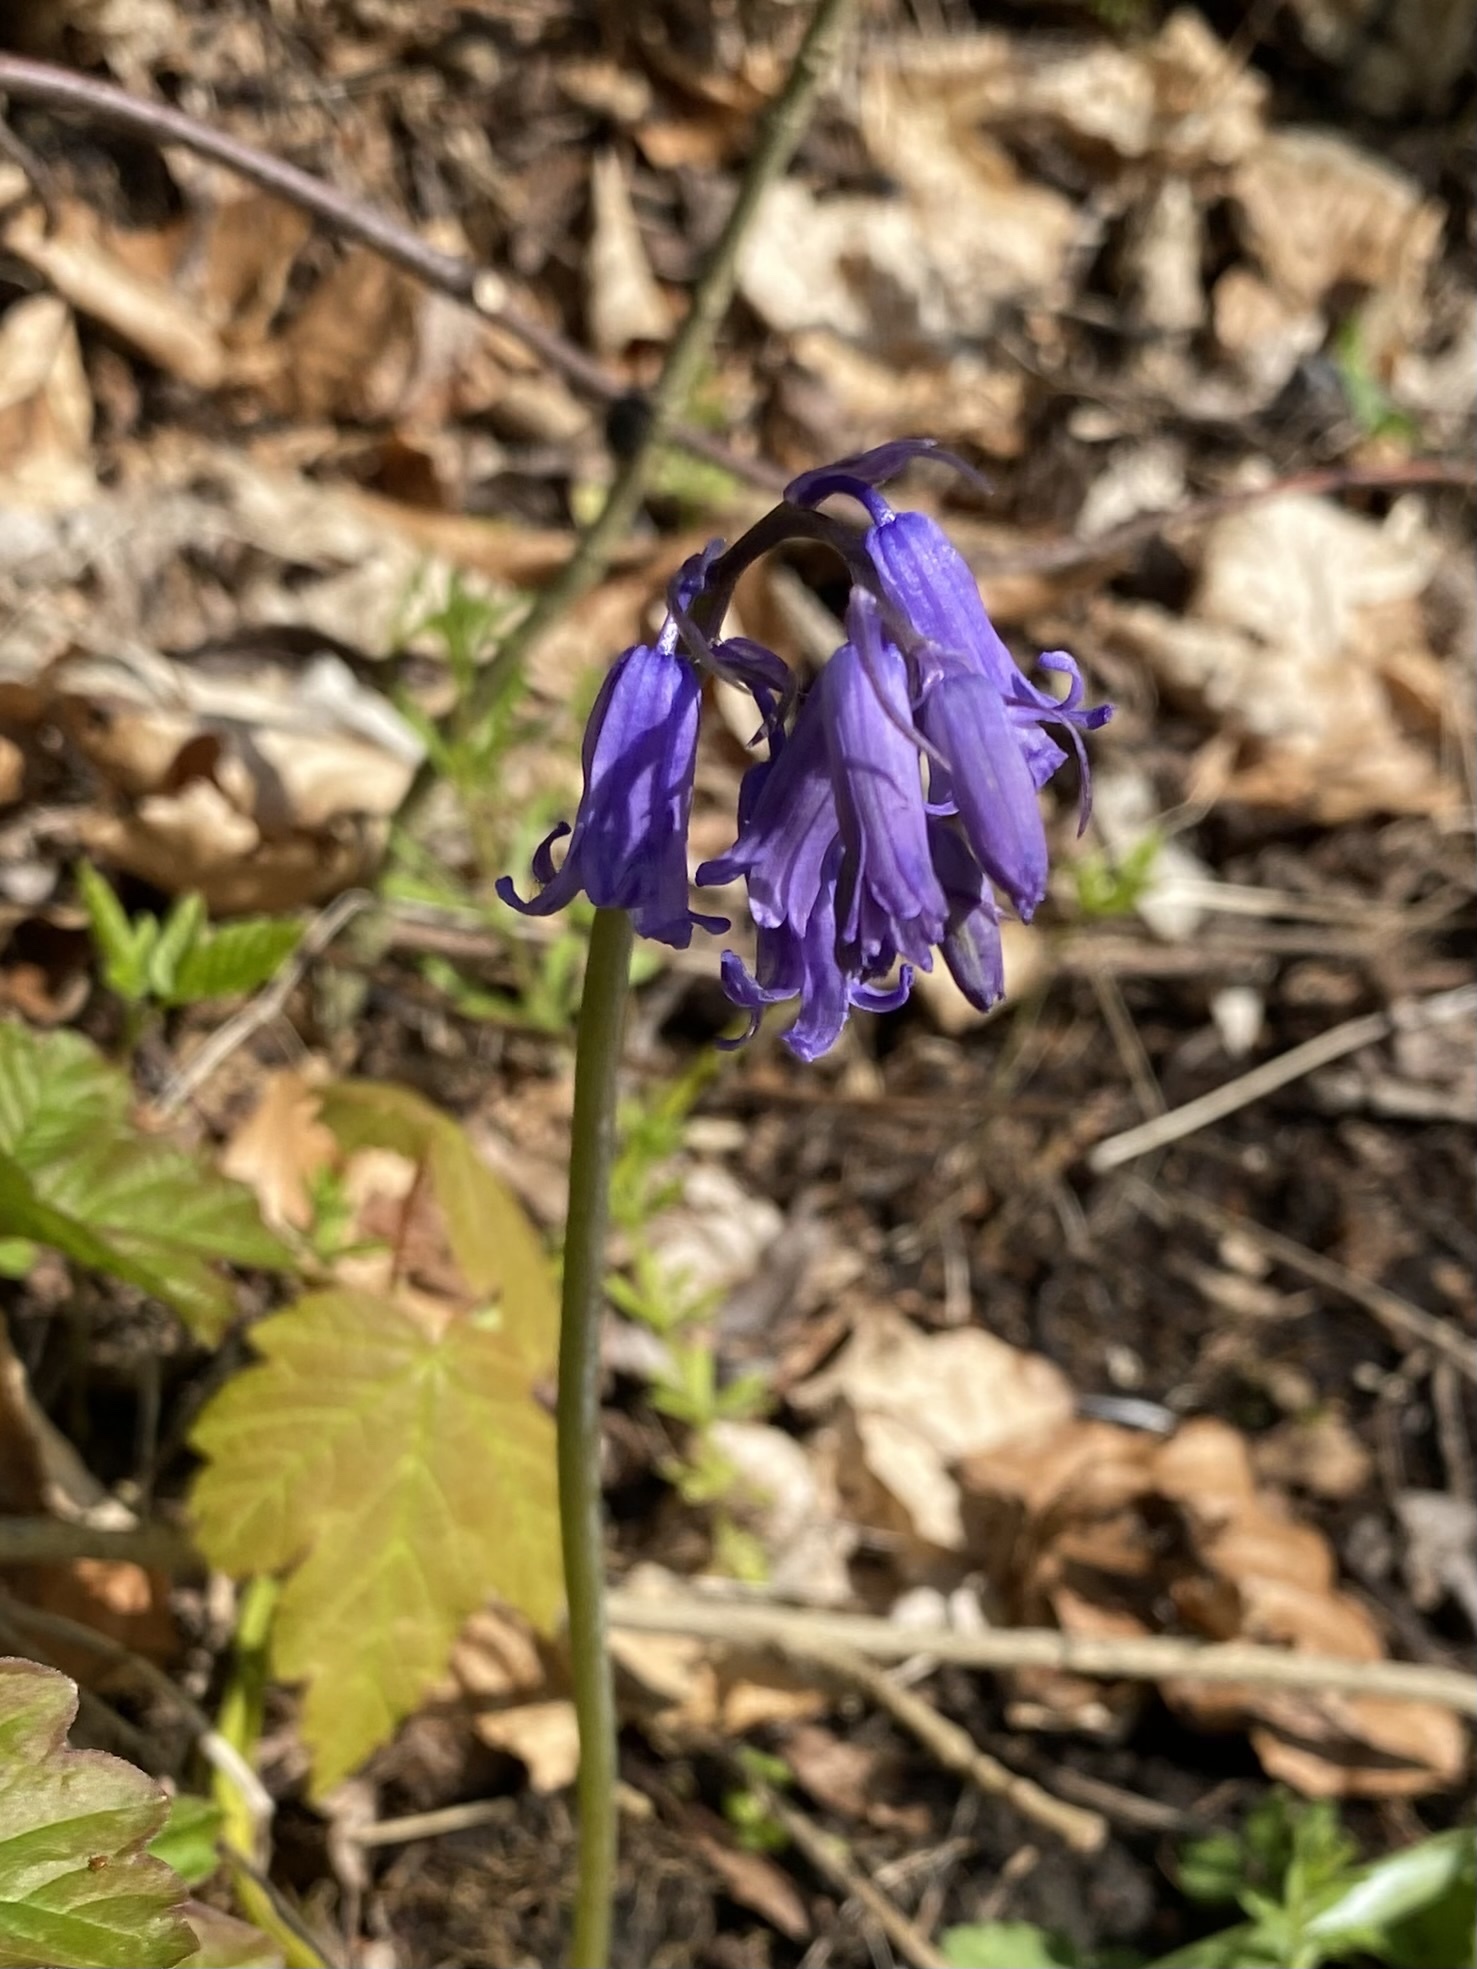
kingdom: Plantae
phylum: Tracheophyta
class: Liliopsida
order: Asparagales
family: Asparagaceae
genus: Hyacinthoides
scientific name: Hyacinthoides non-scripta
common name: Bluebell
